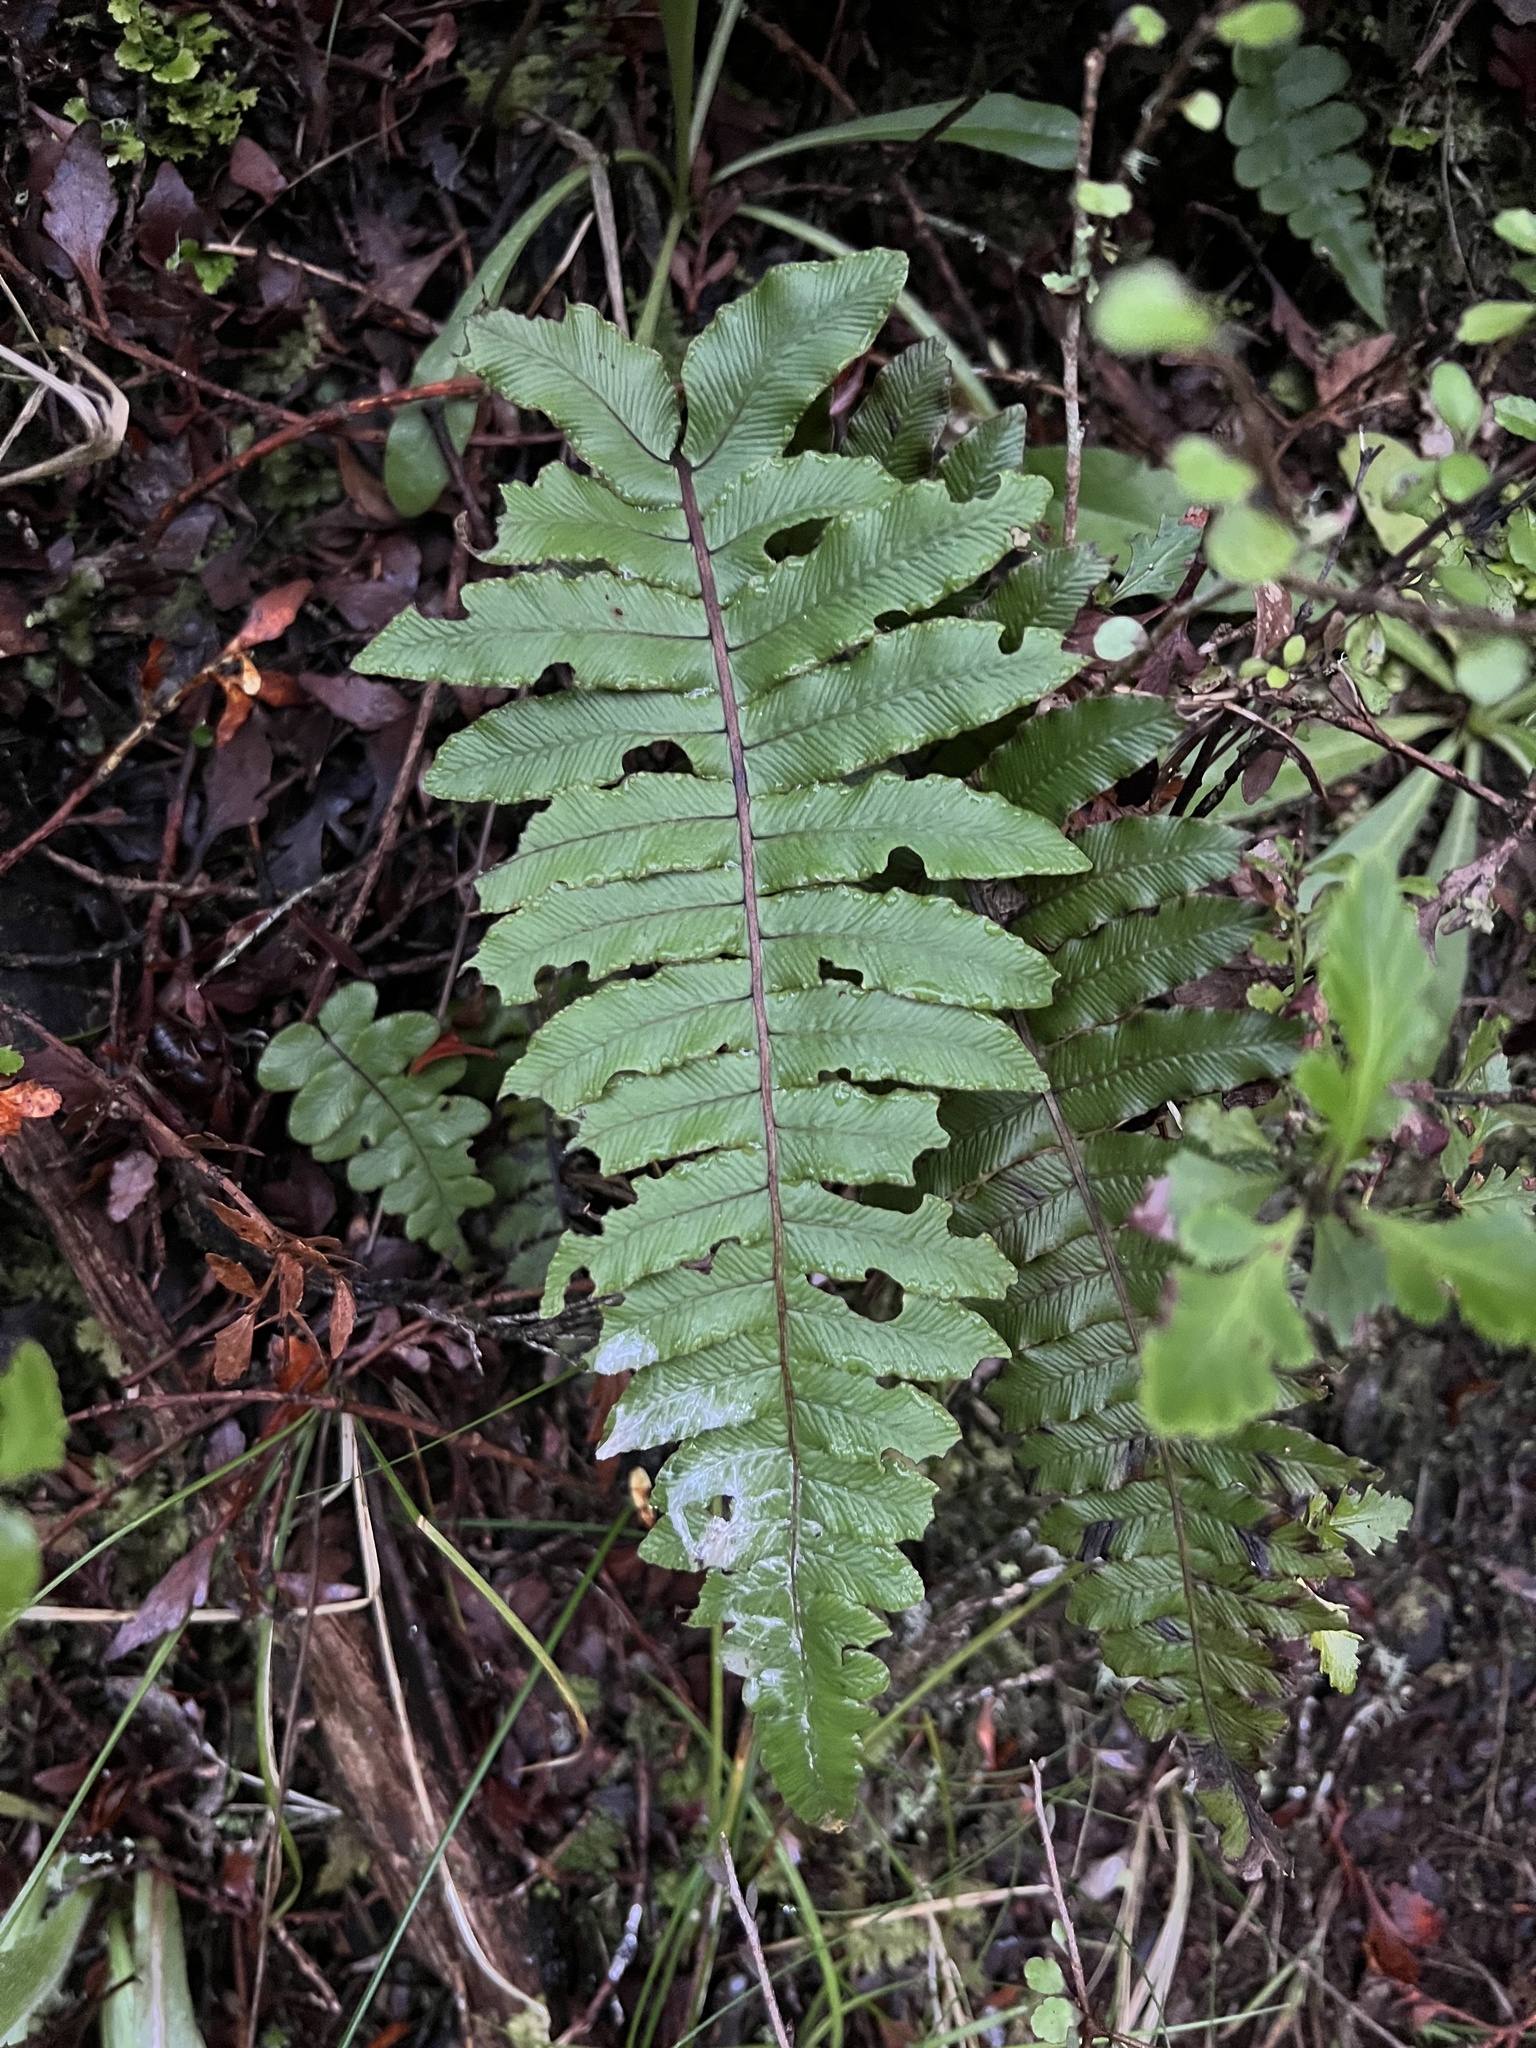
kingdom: Plantae
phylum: Tracheophyta
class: Polypodiopsida
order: Polypodiales
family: Blechnaceae
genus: Cranfillia
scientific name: Cranfillia deltoides
